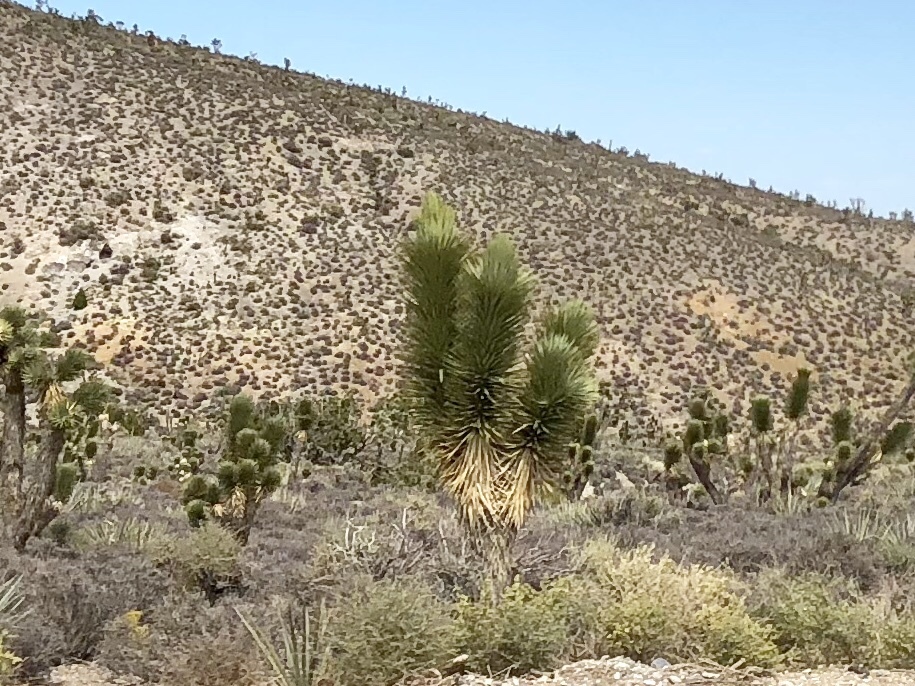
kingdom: Plantae
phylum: Tracheophyta
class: Liliopsida
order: Asparagales
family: Asparagaceae
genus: Yucca
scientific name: Yucca brevifolia
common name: Joshua tree
